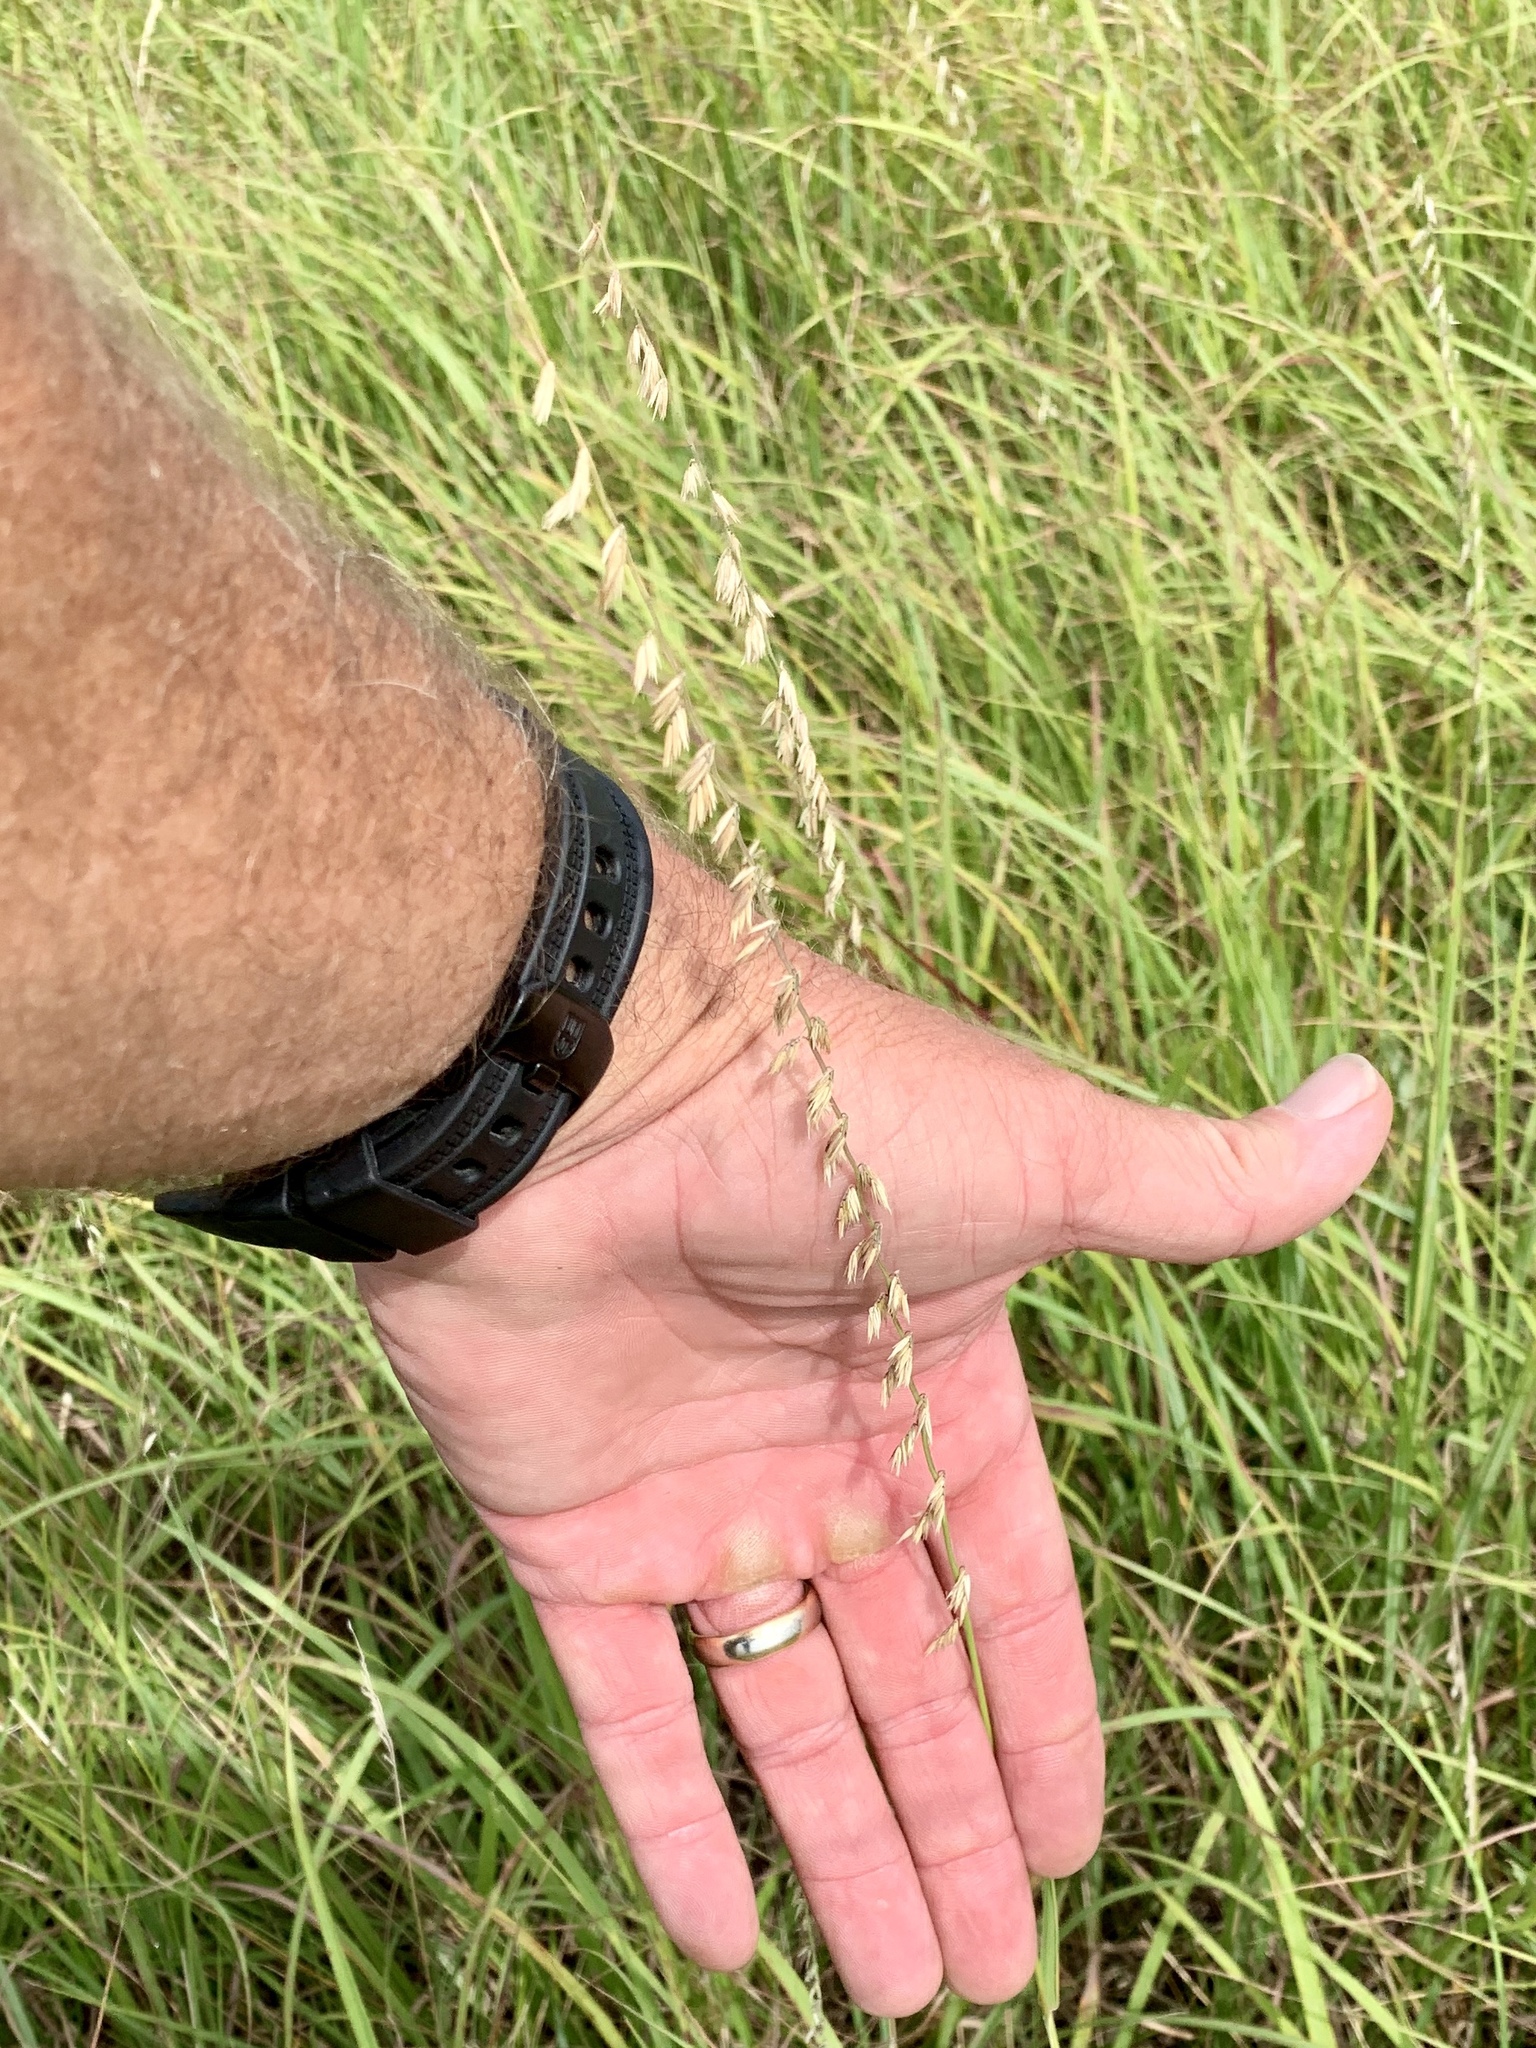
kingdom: Plantae
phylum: Tracheophyta
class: Liliopsida
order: Poales
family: Poaceae
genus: Bouteloua
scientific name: Bouteloua curtipendula
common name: Side-oats grama
